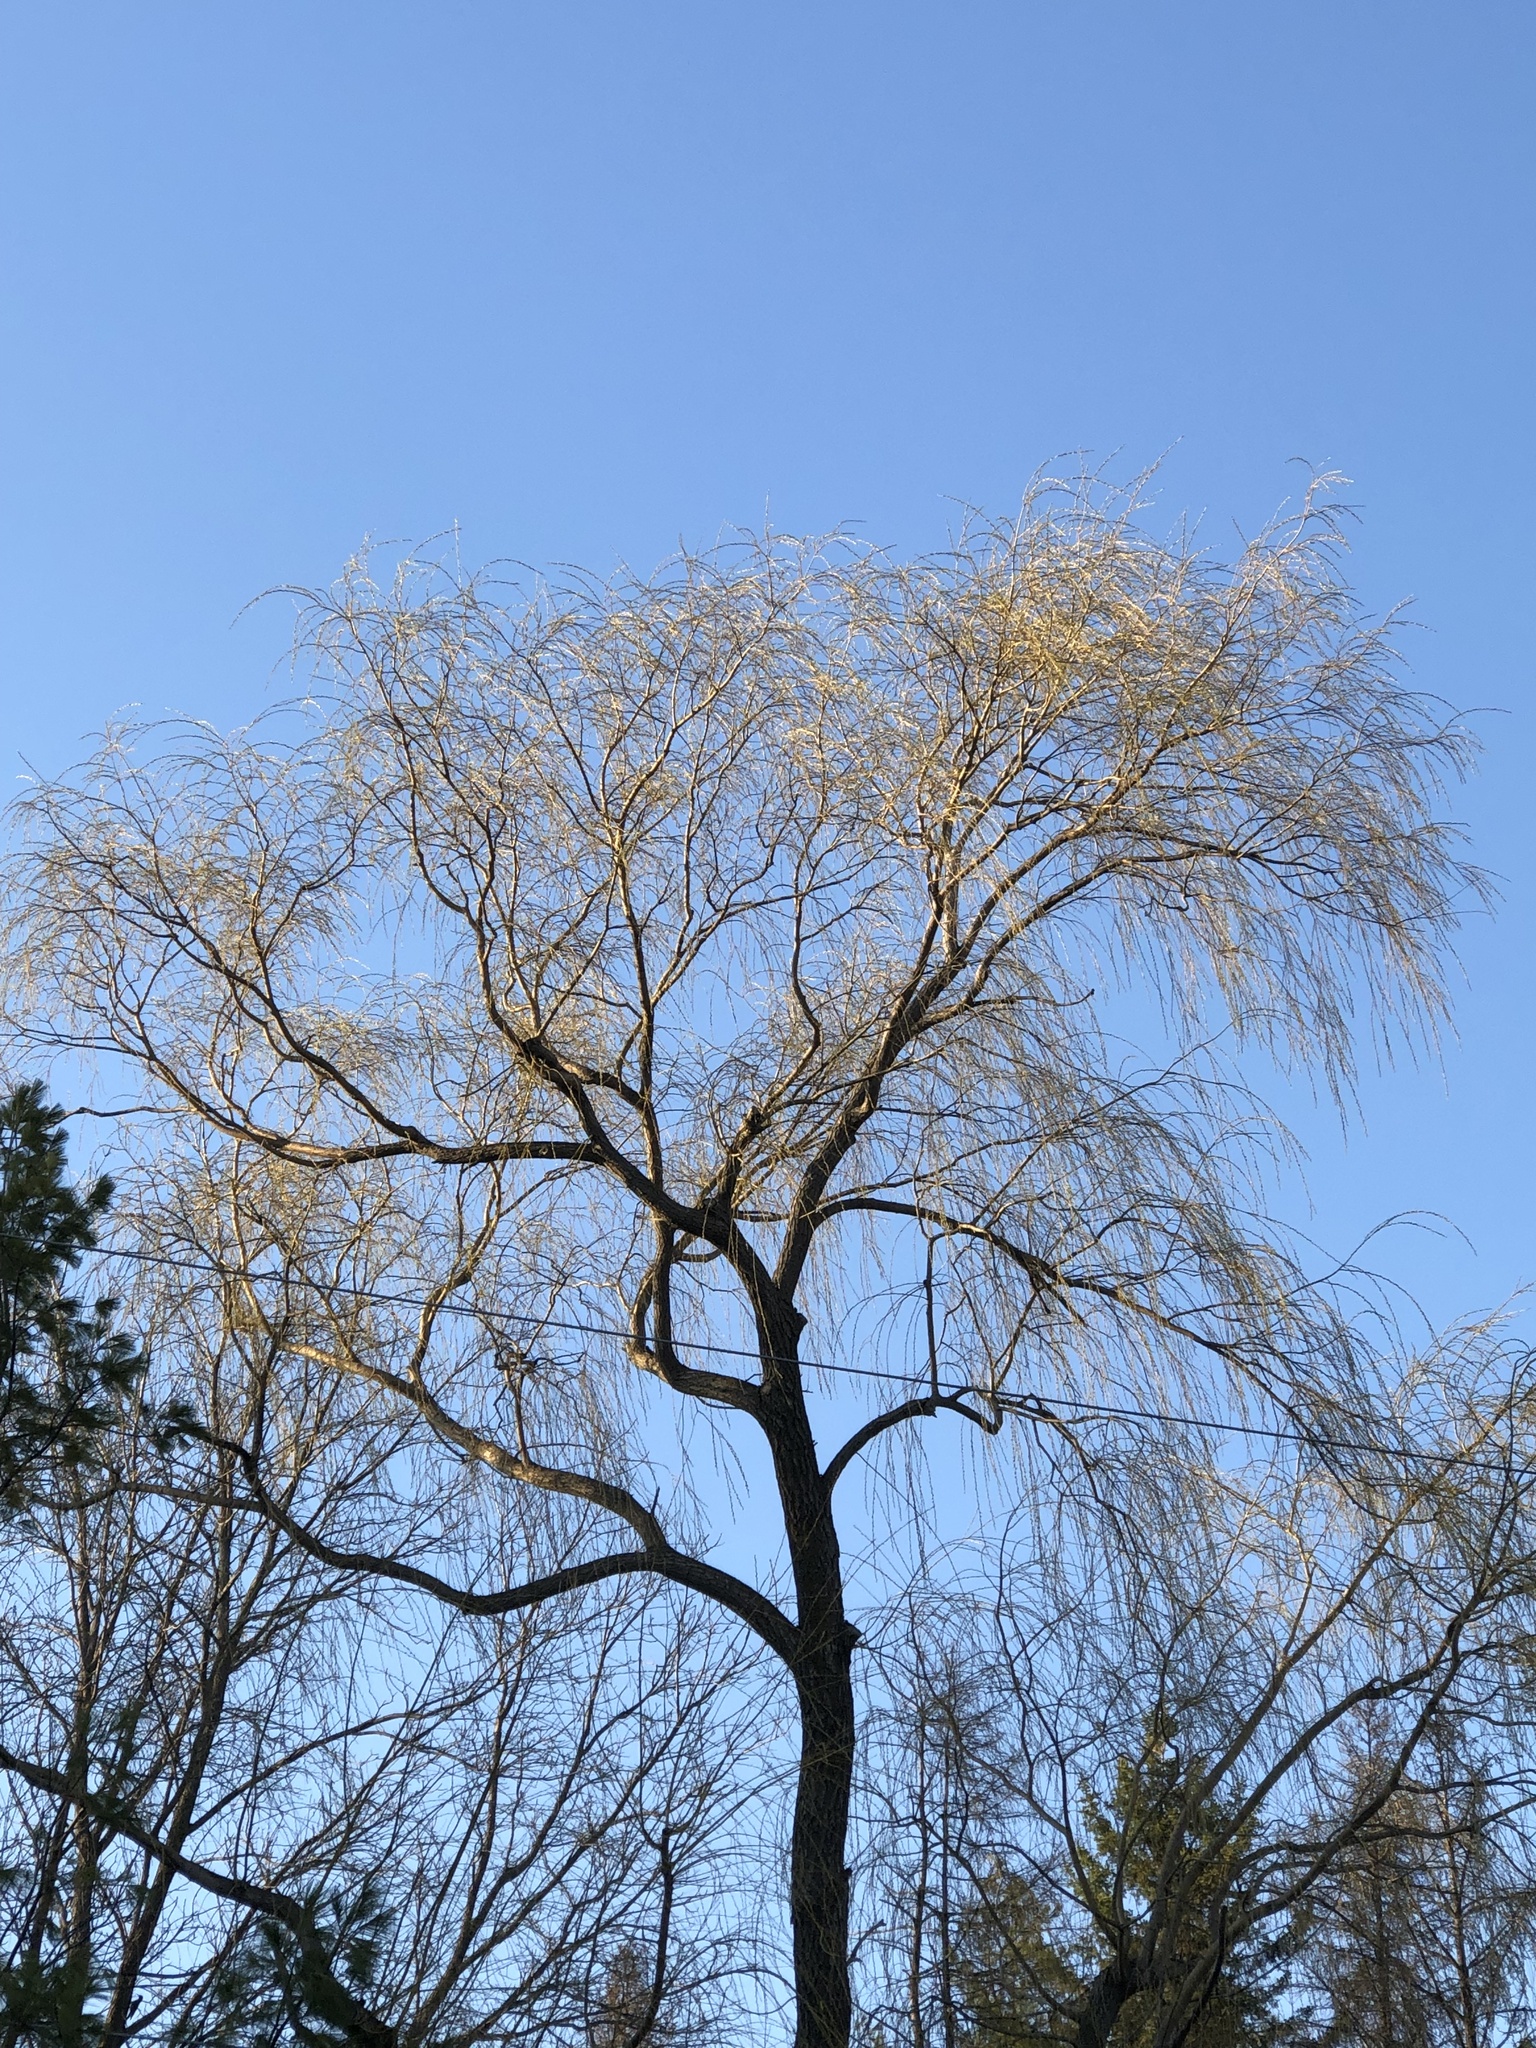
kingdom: Plantae
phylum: Tracheophyta
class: Magnoliopsida
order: Malpighiales
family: Salicaceae
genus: Salix
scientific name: Salix pendulina
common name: Wisconsin weeping willow
